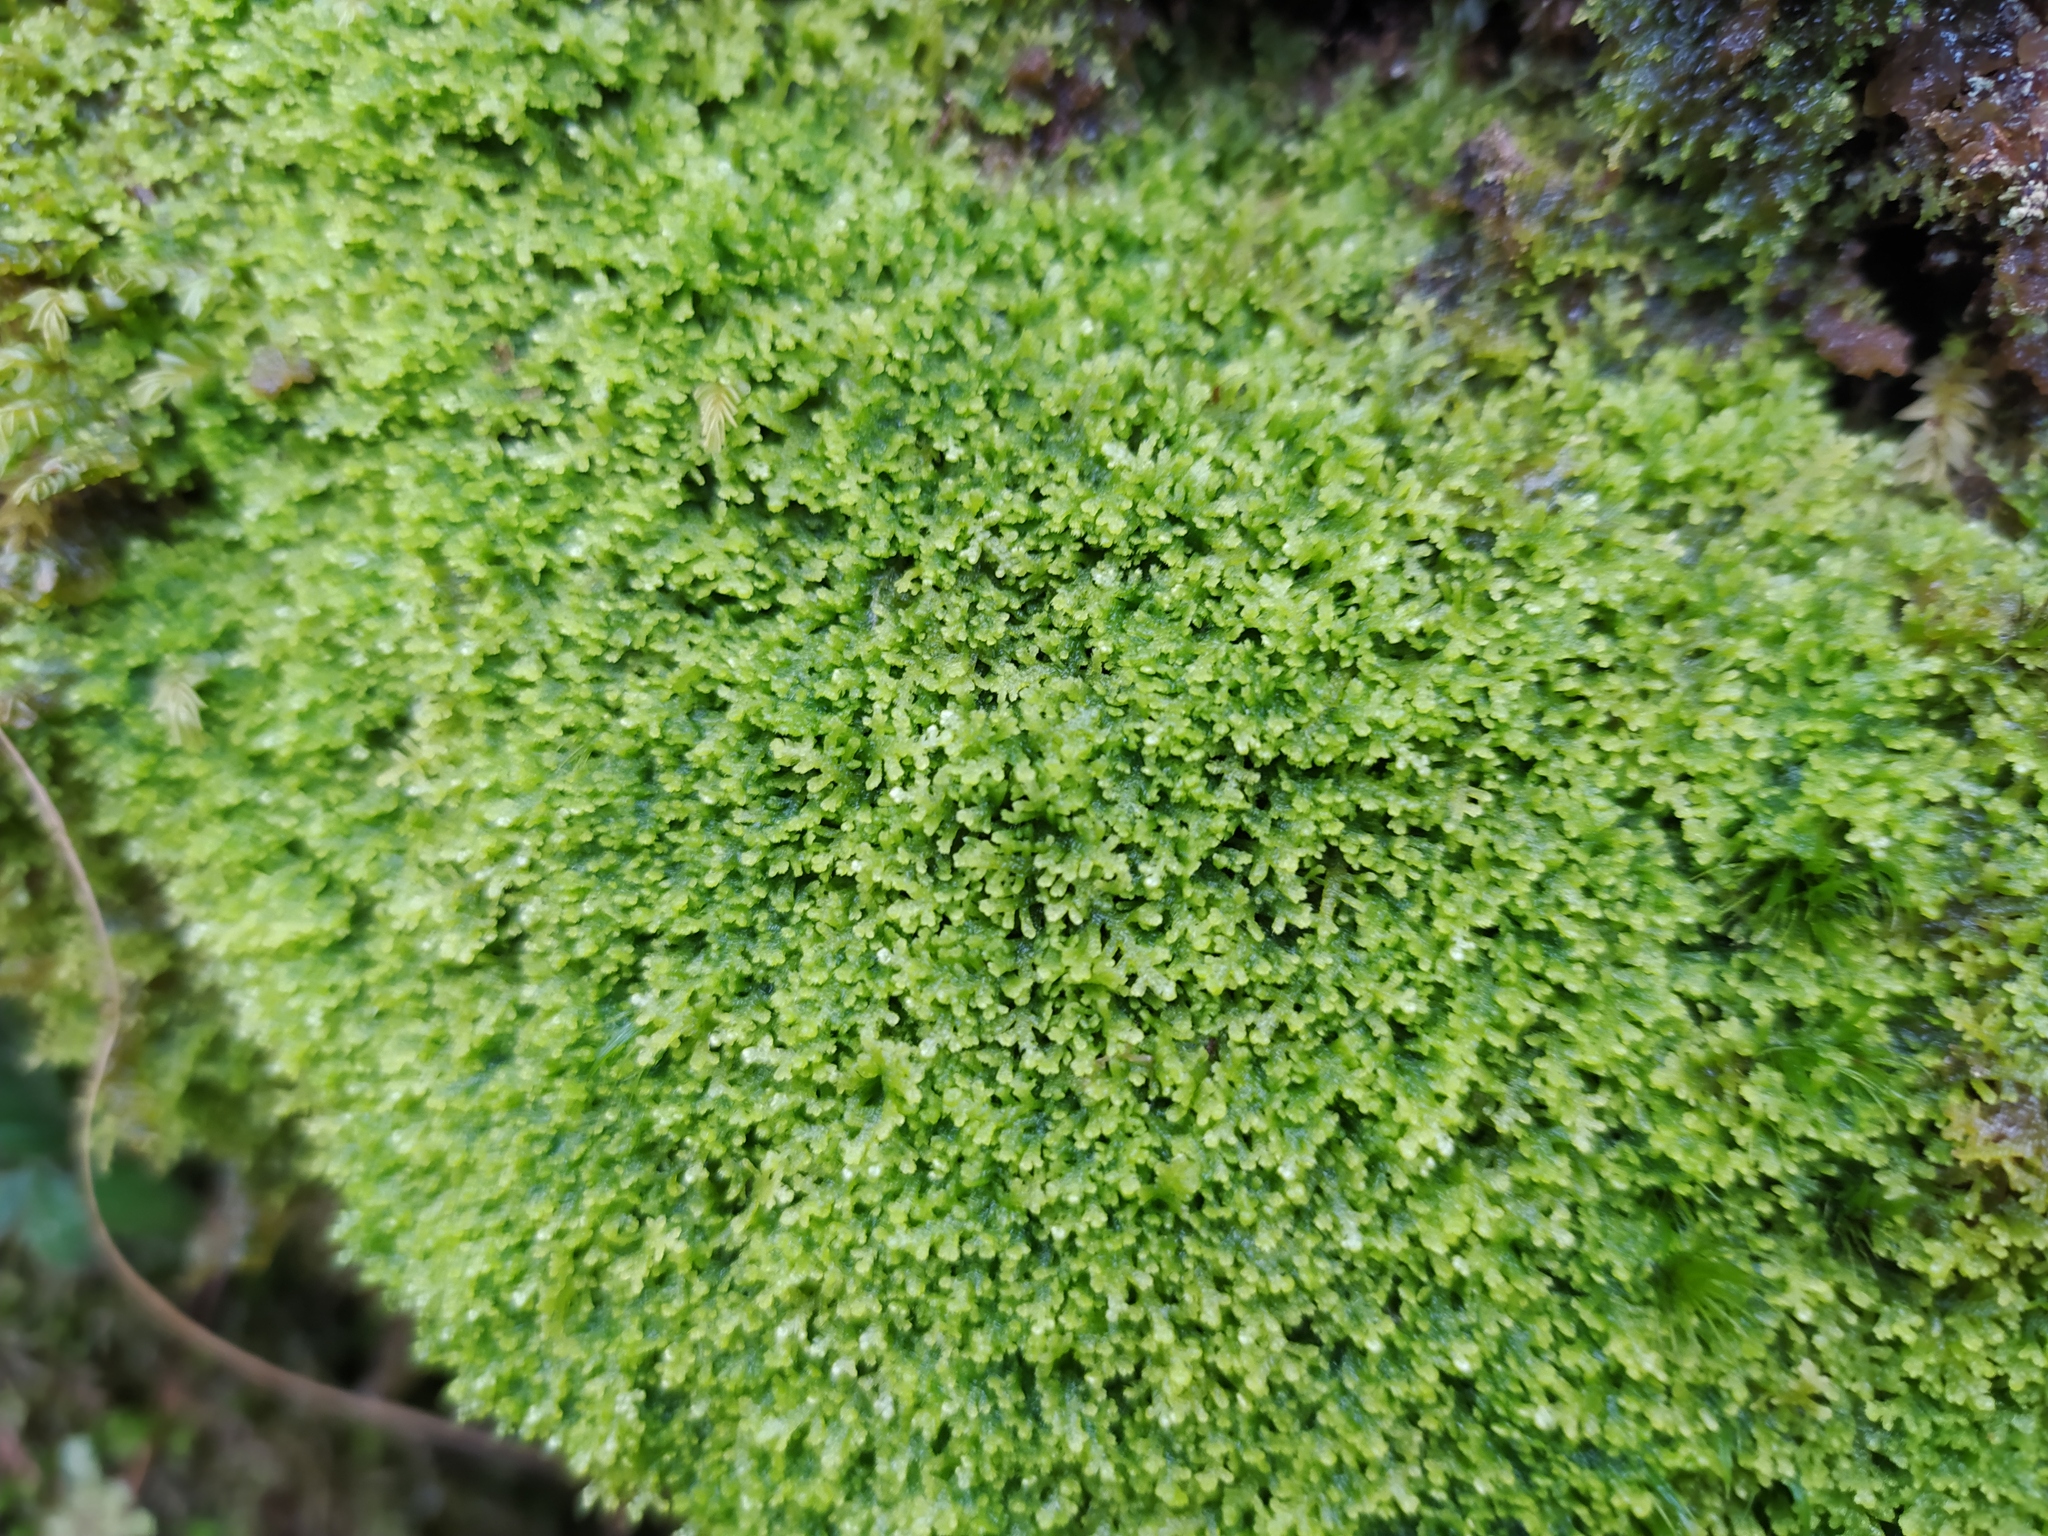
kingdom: Plantae
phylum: Marchantiophyta
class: Jungermanniopsida
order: Jungermanniales
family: Lepidoziaceae
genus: Lepidozia
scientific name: Lepidozia reptans
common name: Creeping fingerwort
